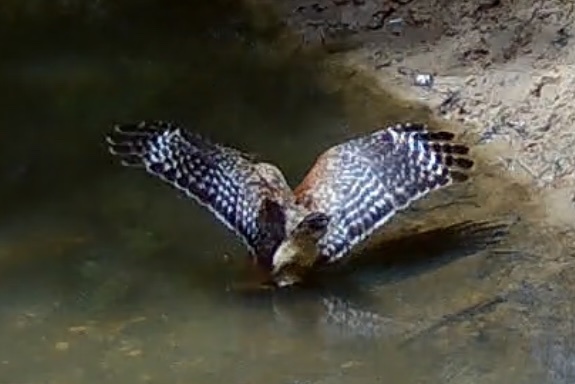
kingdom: Animalia
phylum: Chordata
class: Aves
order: Accipitriformes
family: Accipitridae
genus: Buteo
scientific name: Buteo lineatus
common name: Red-shouldered hawk
